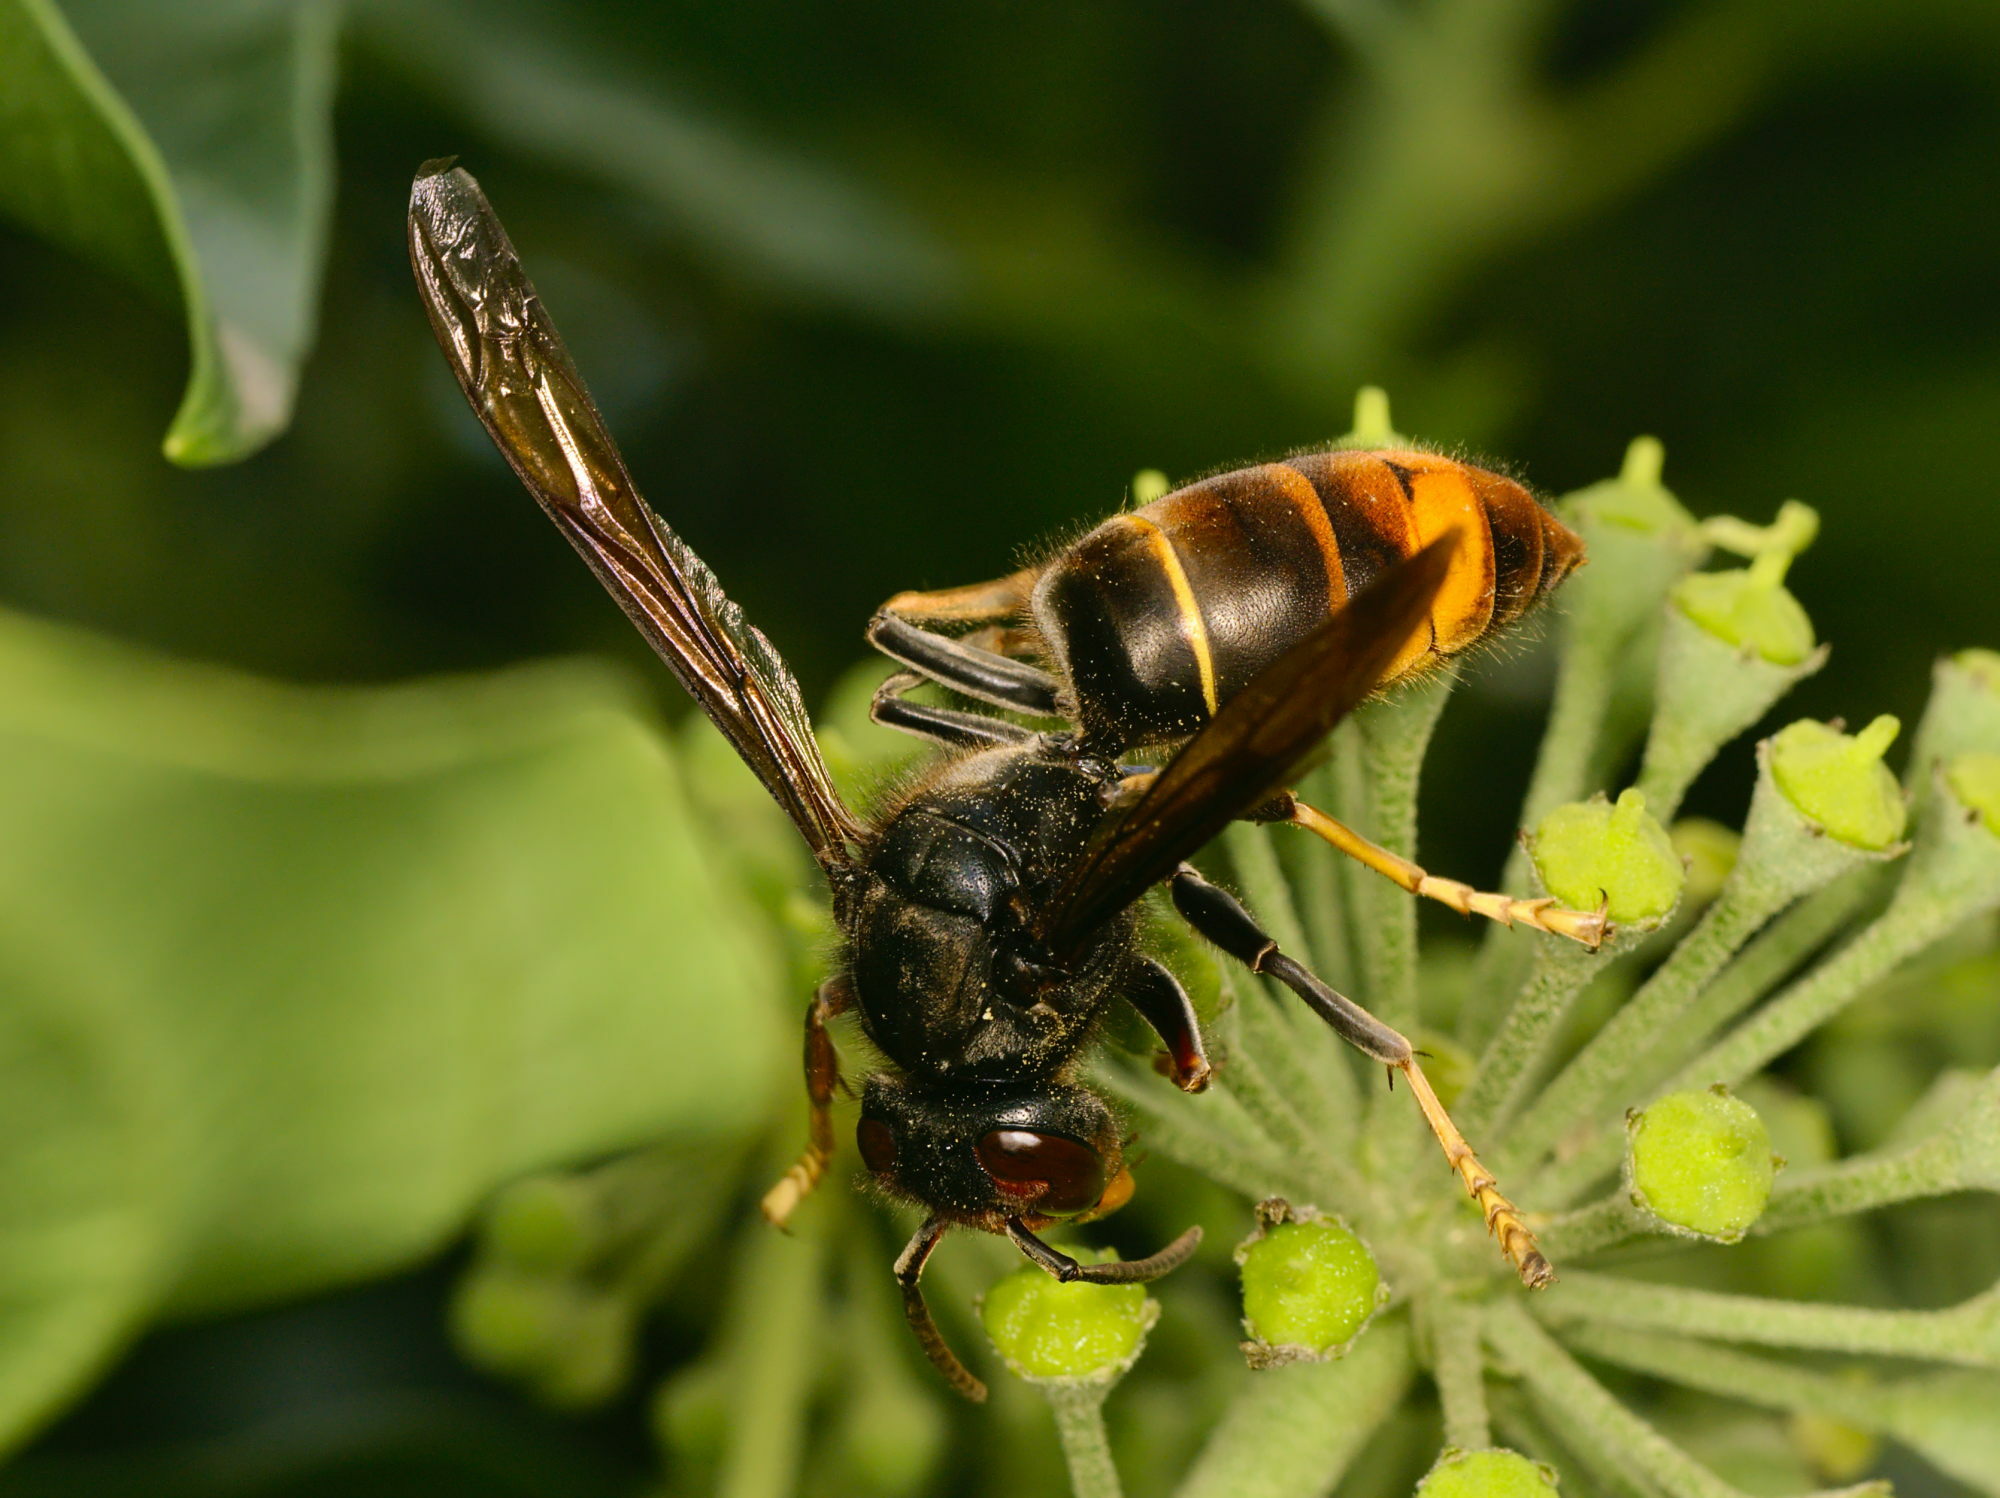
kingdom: Animalia
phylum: Arthropoda
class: Insecta
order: Hymenoptera
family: Vespidae
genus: Vespa
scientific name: Vespa velutina
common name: Asian hornet
